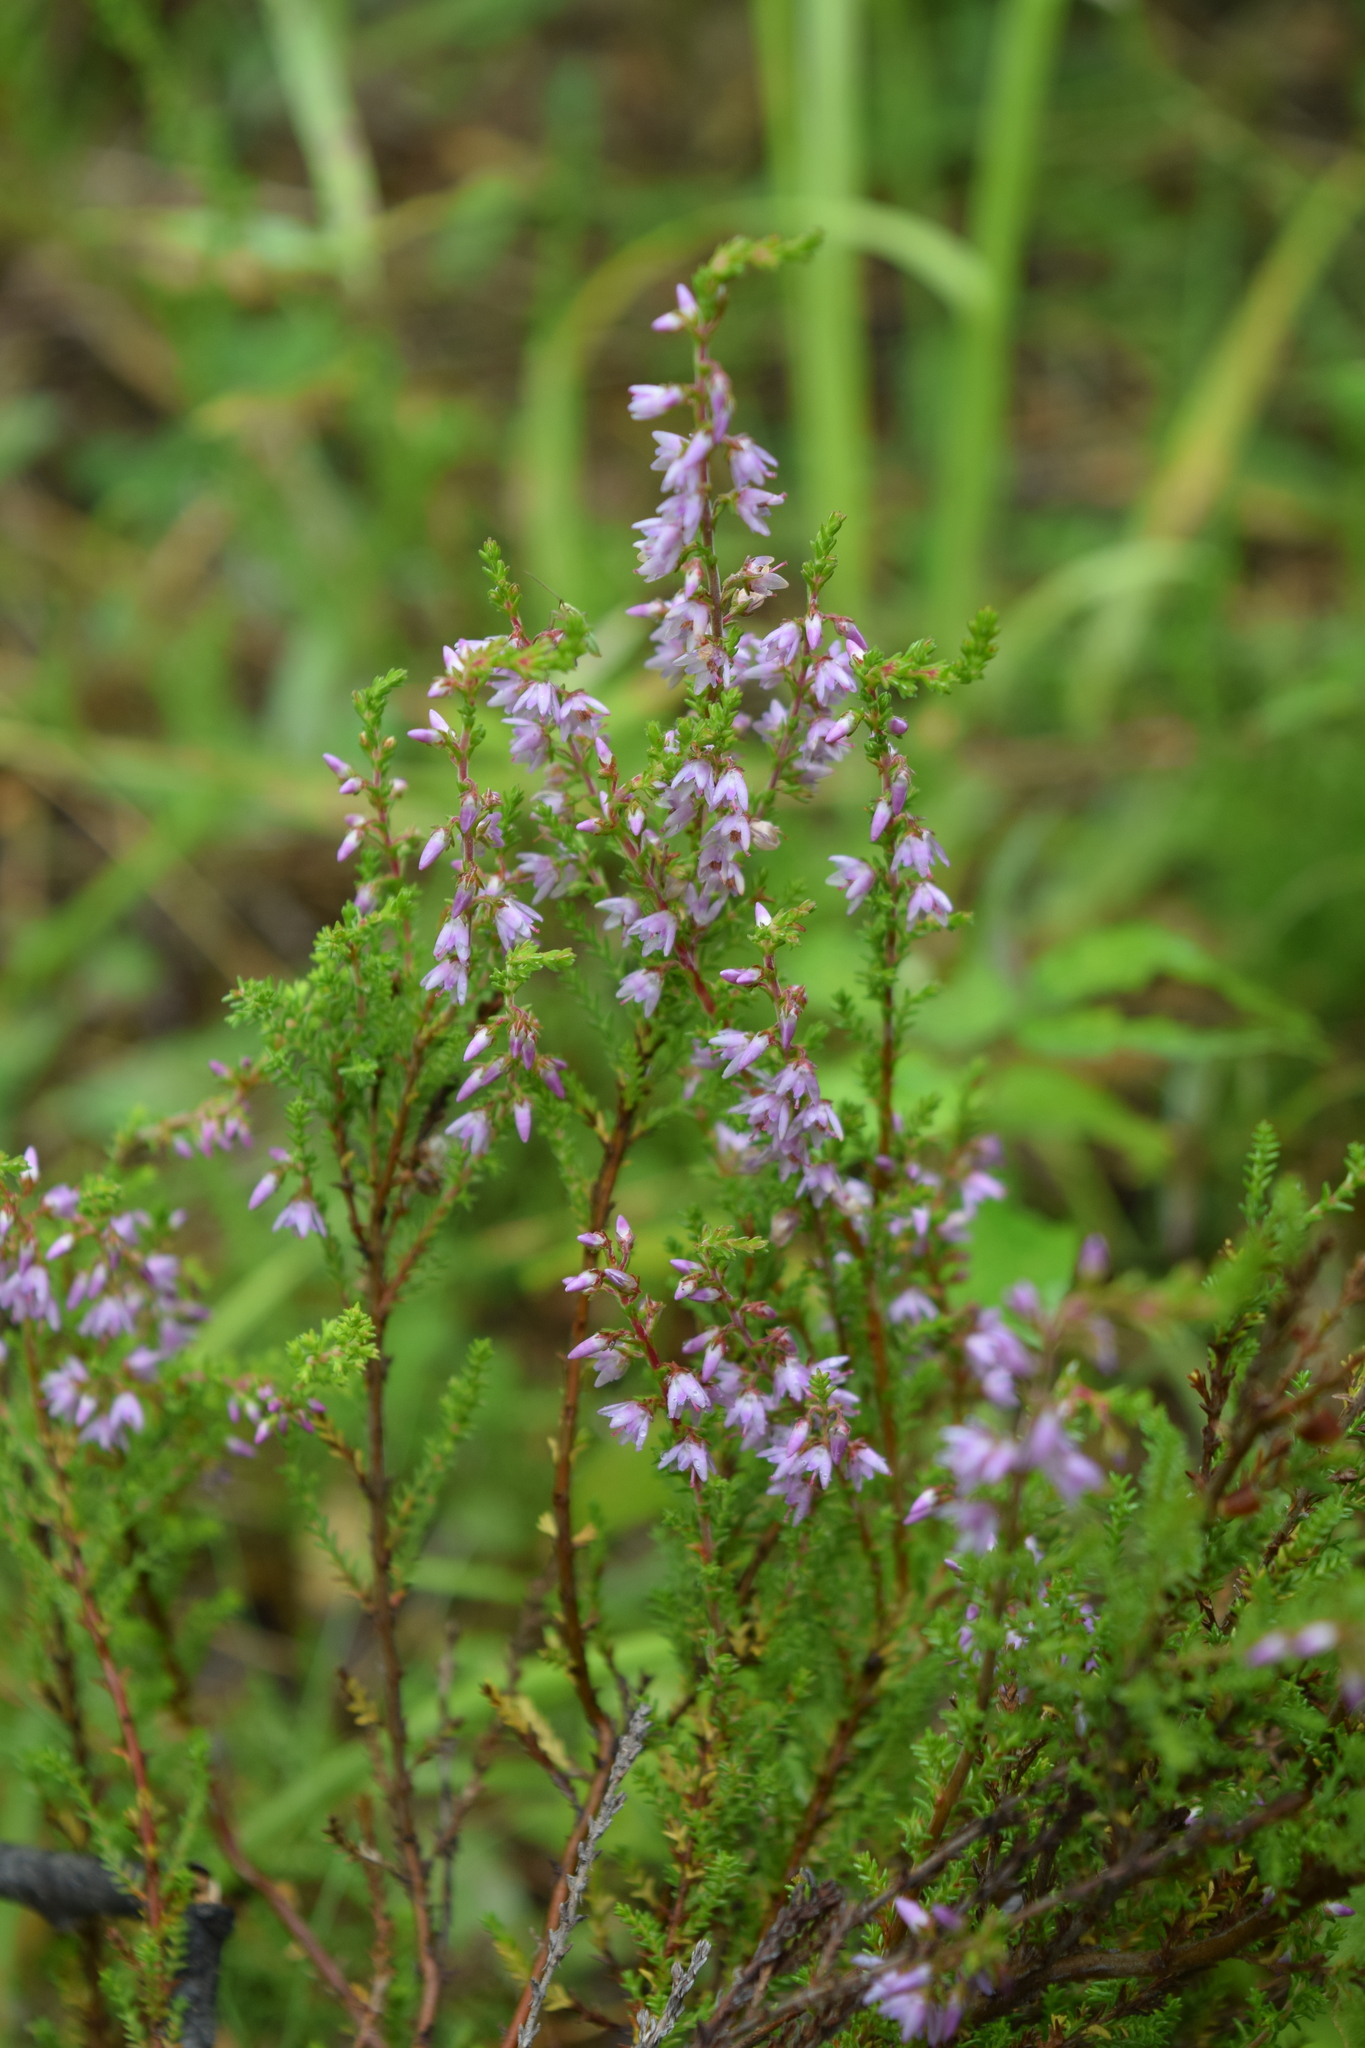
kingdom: Plantae
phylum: Tracheophyta
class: Magnoliopsida
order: Ericales
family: Ericaceae
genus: Calluna
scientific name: Calluna vulgaris
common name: Heather
